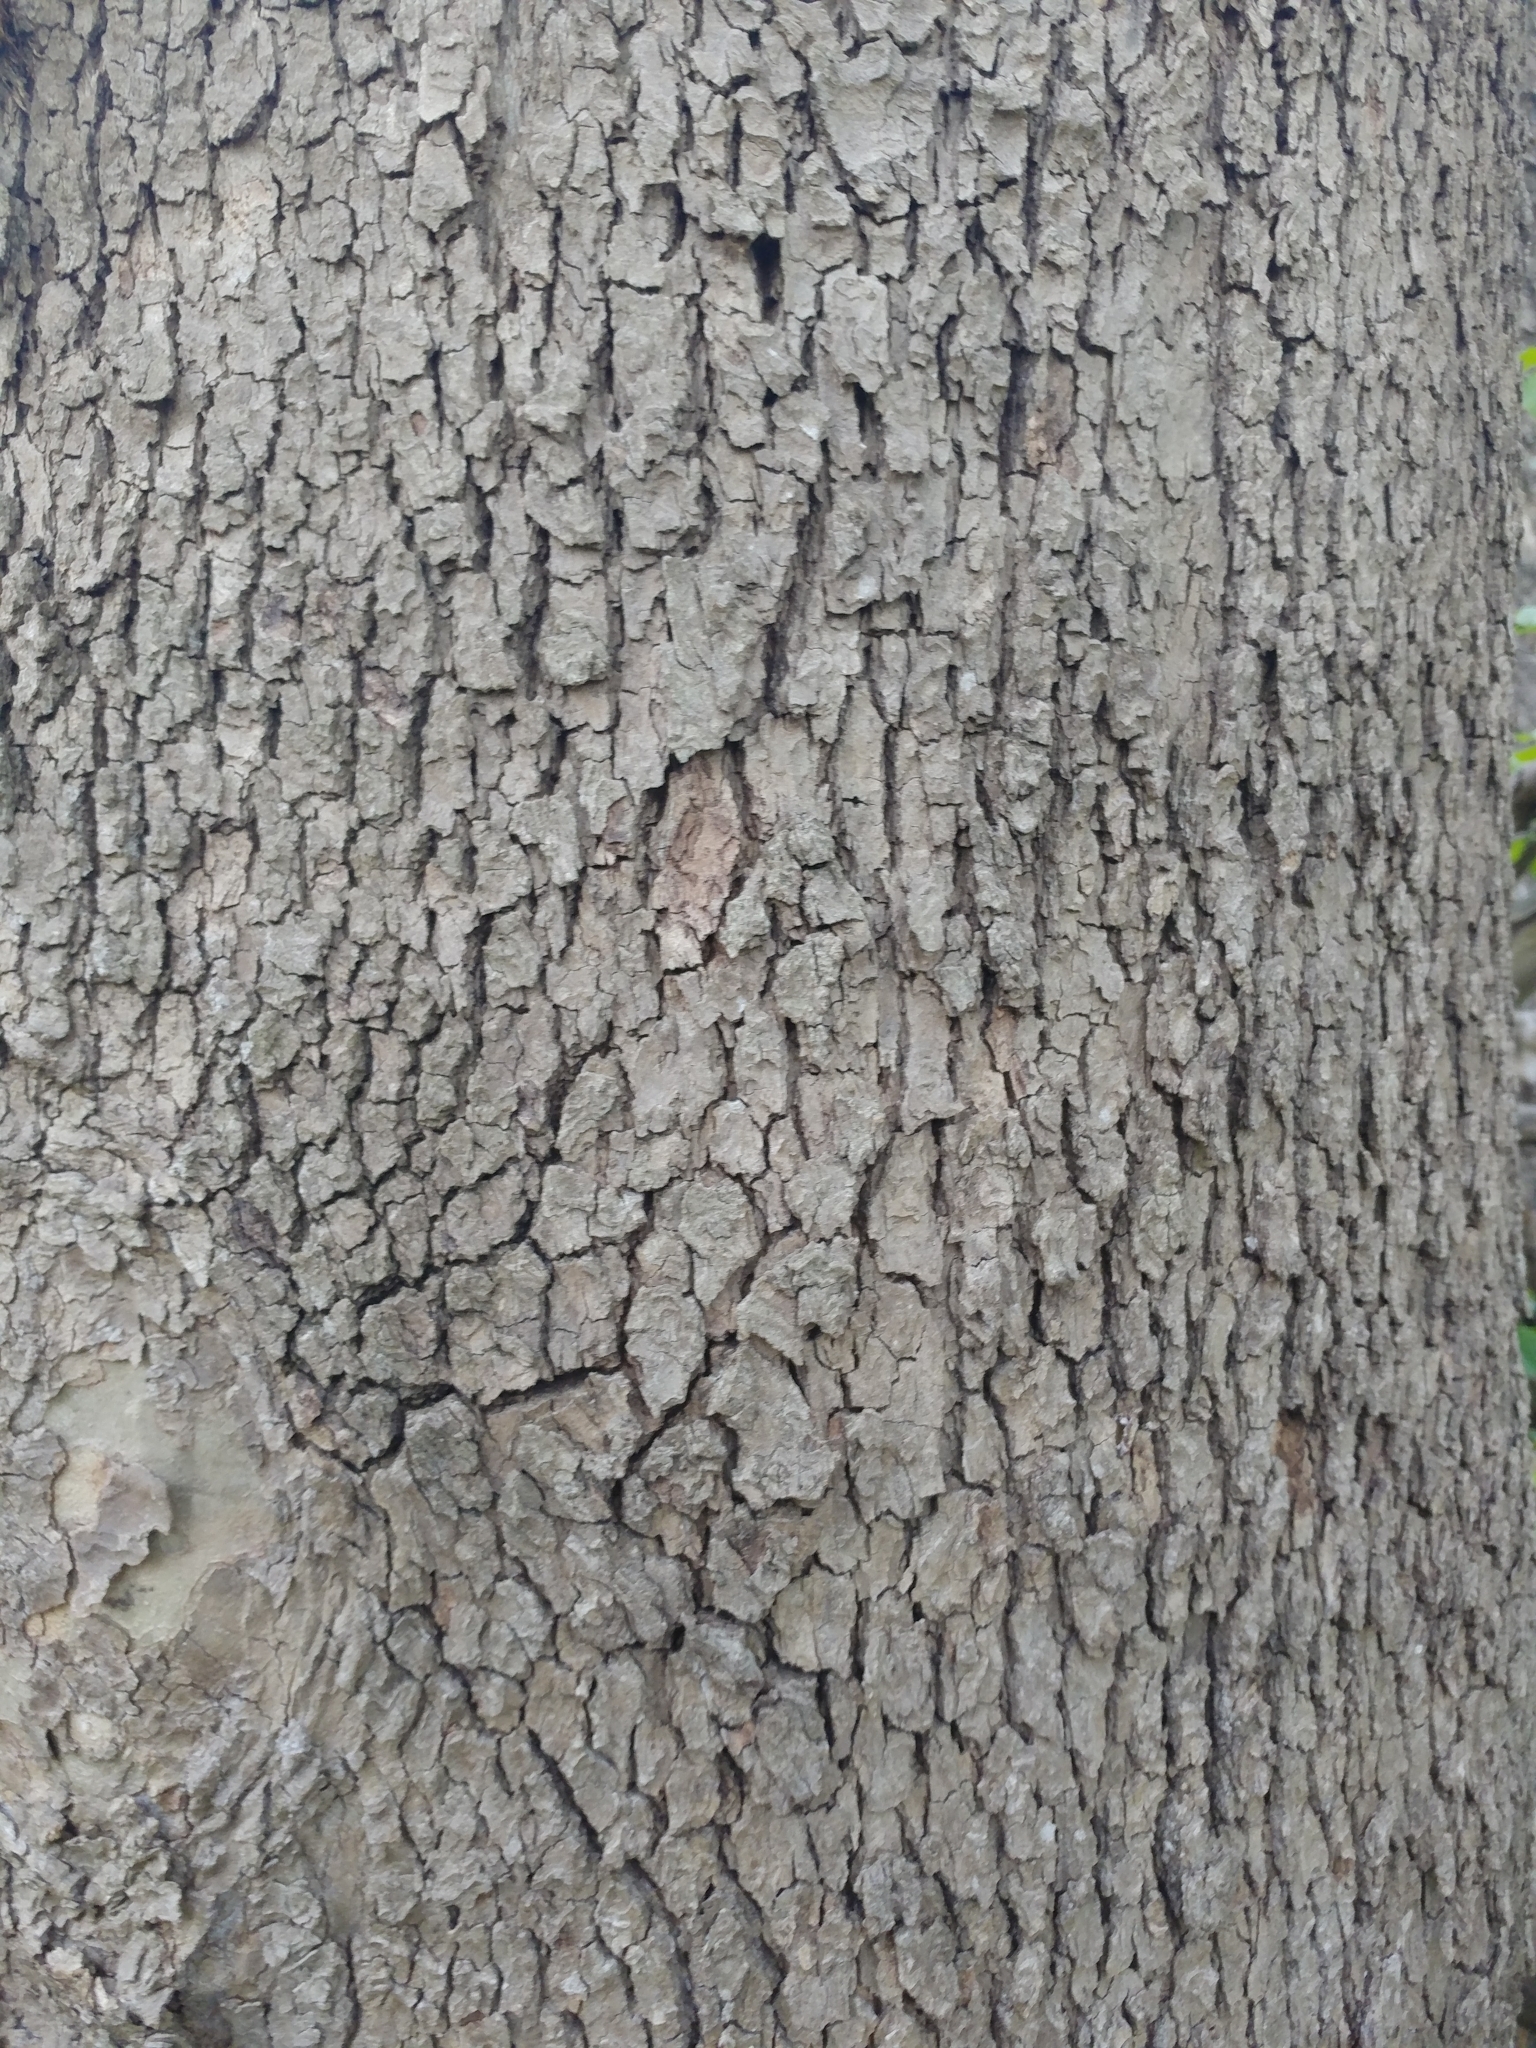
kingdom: Plantae
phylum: Tracheophyta
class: Magnoliopsida
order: Proteales
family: Platanaceae
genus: Platanus
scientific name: Platanus occidentalis
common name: American sycamore
